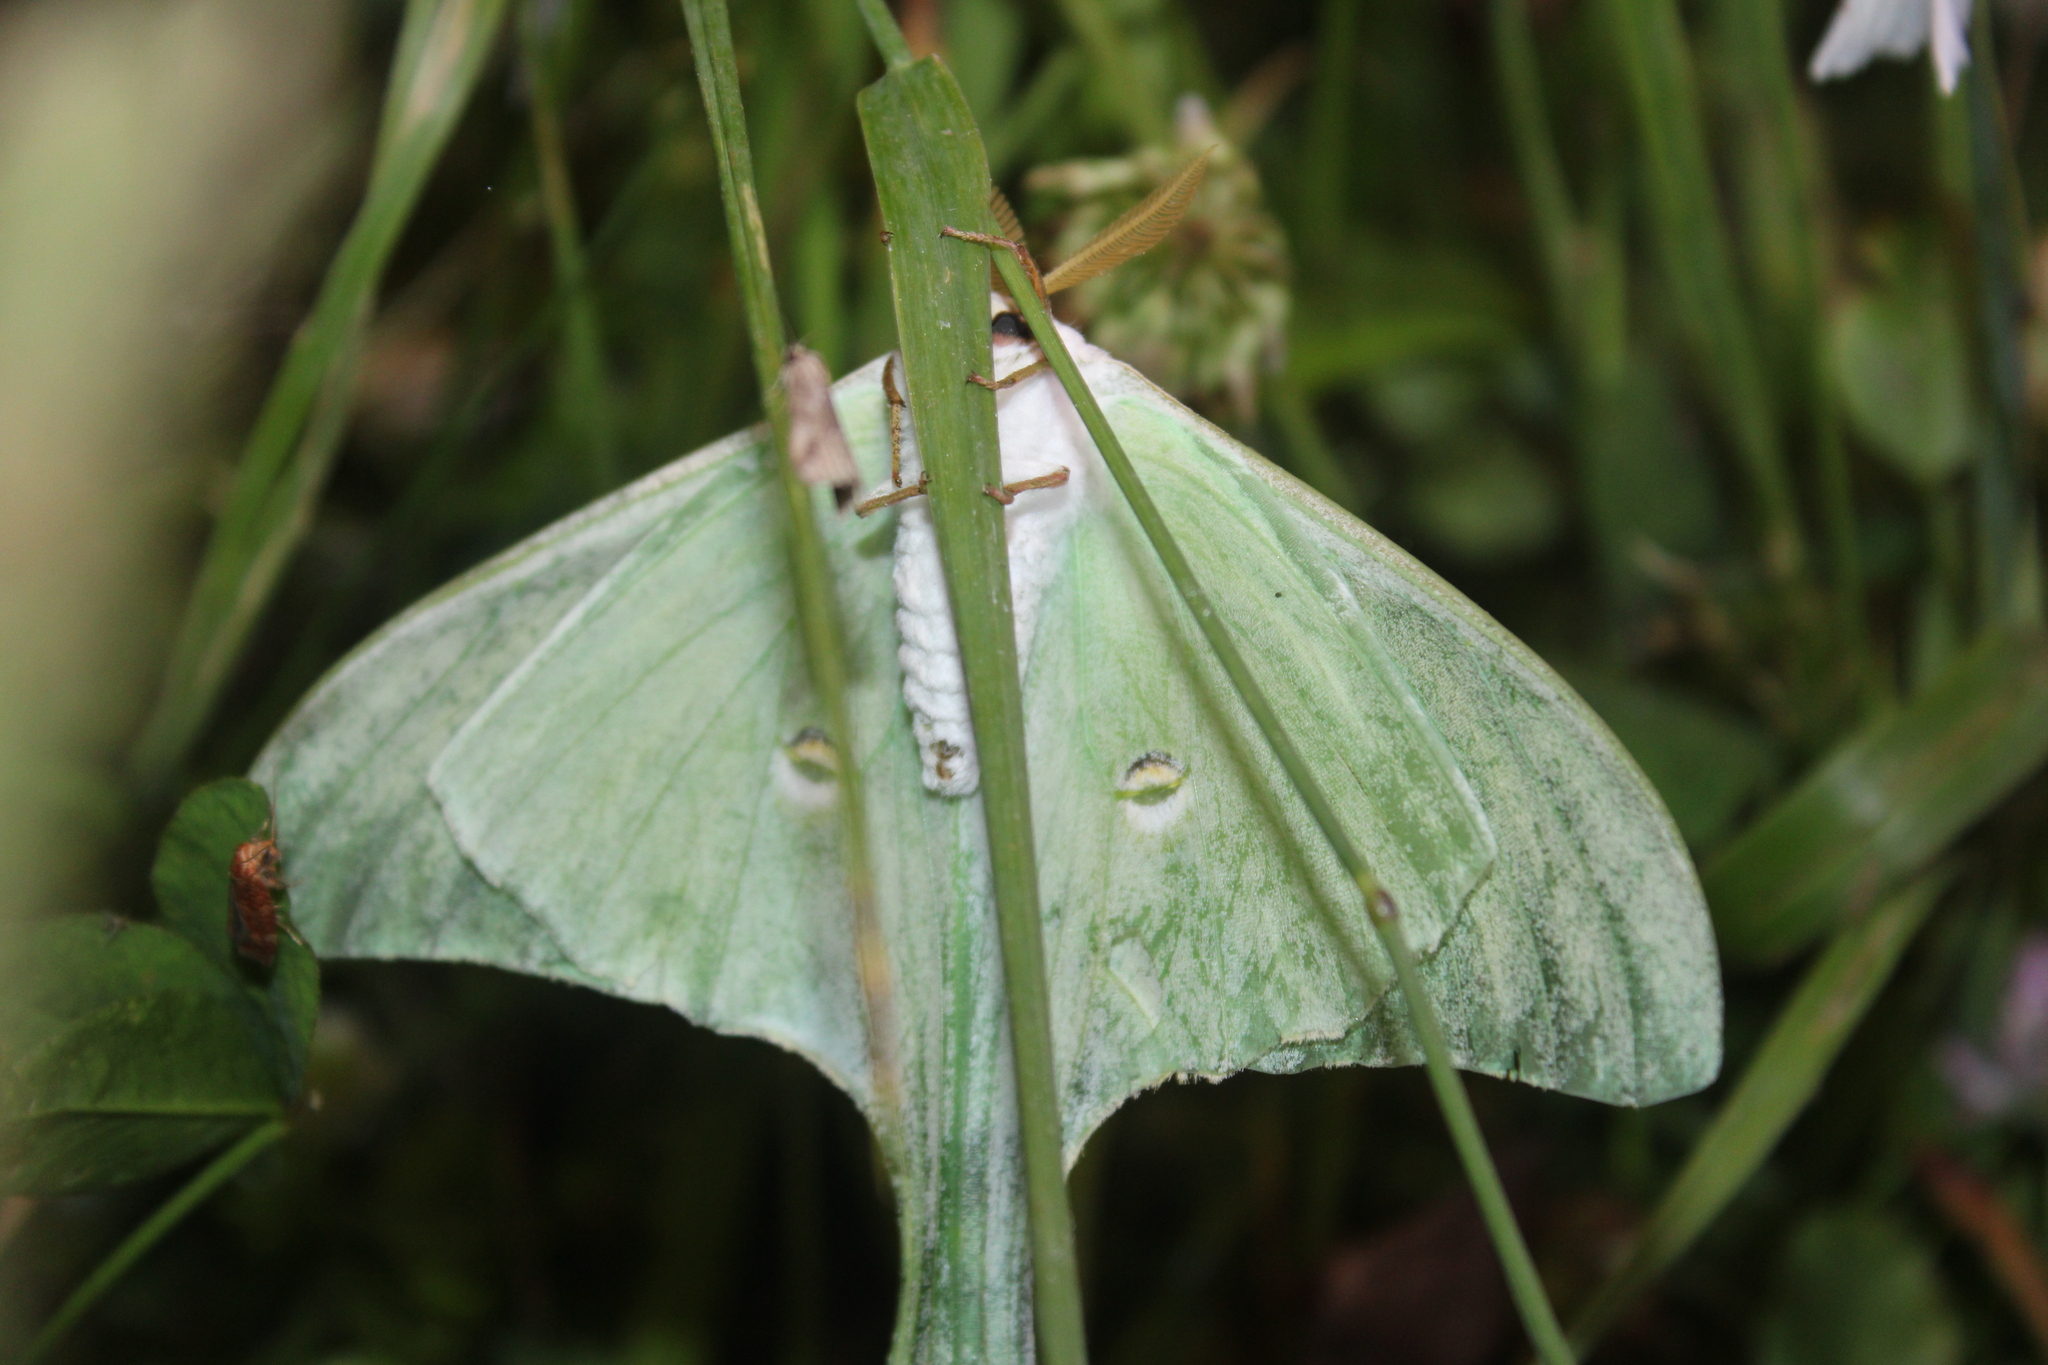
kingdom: Animalia
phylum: Arthropoda
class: Insecta
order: Lepidoptera
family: Saturniidae
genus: Actias
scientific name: Actias luna
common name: Luna moth
